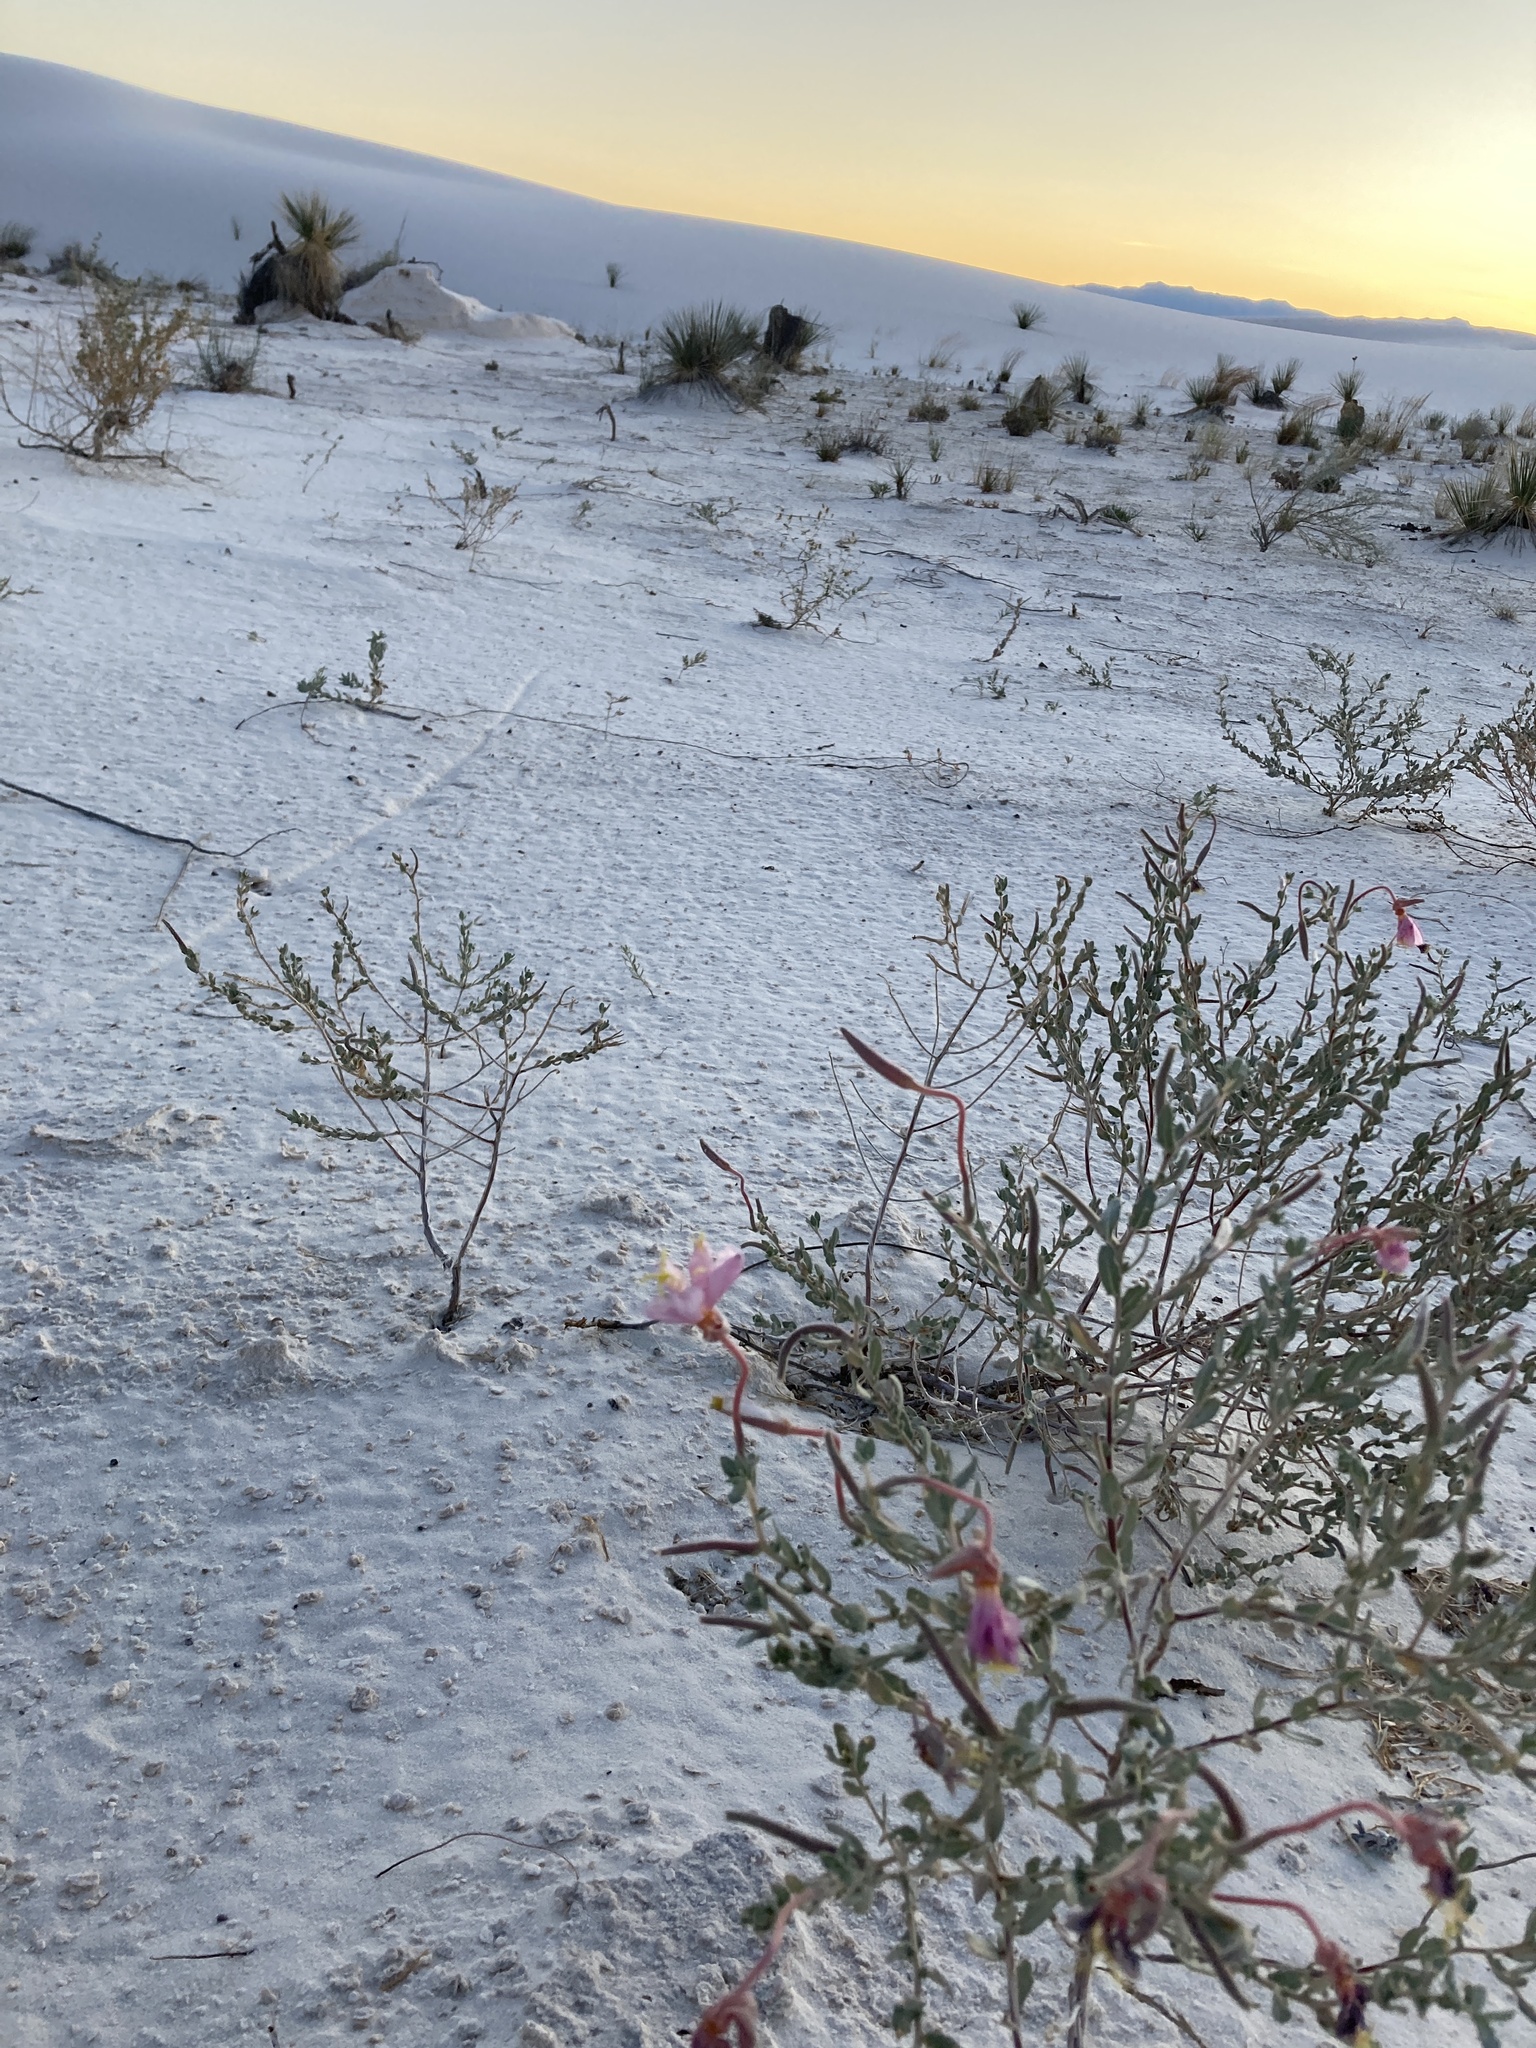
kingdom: Plantae
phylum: Tracheophyta
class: Magnoliopsida
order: Myrtales
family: Onagraceae
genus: Oenothera
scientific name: Oenothera pallida
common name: Pale evening-primrose
